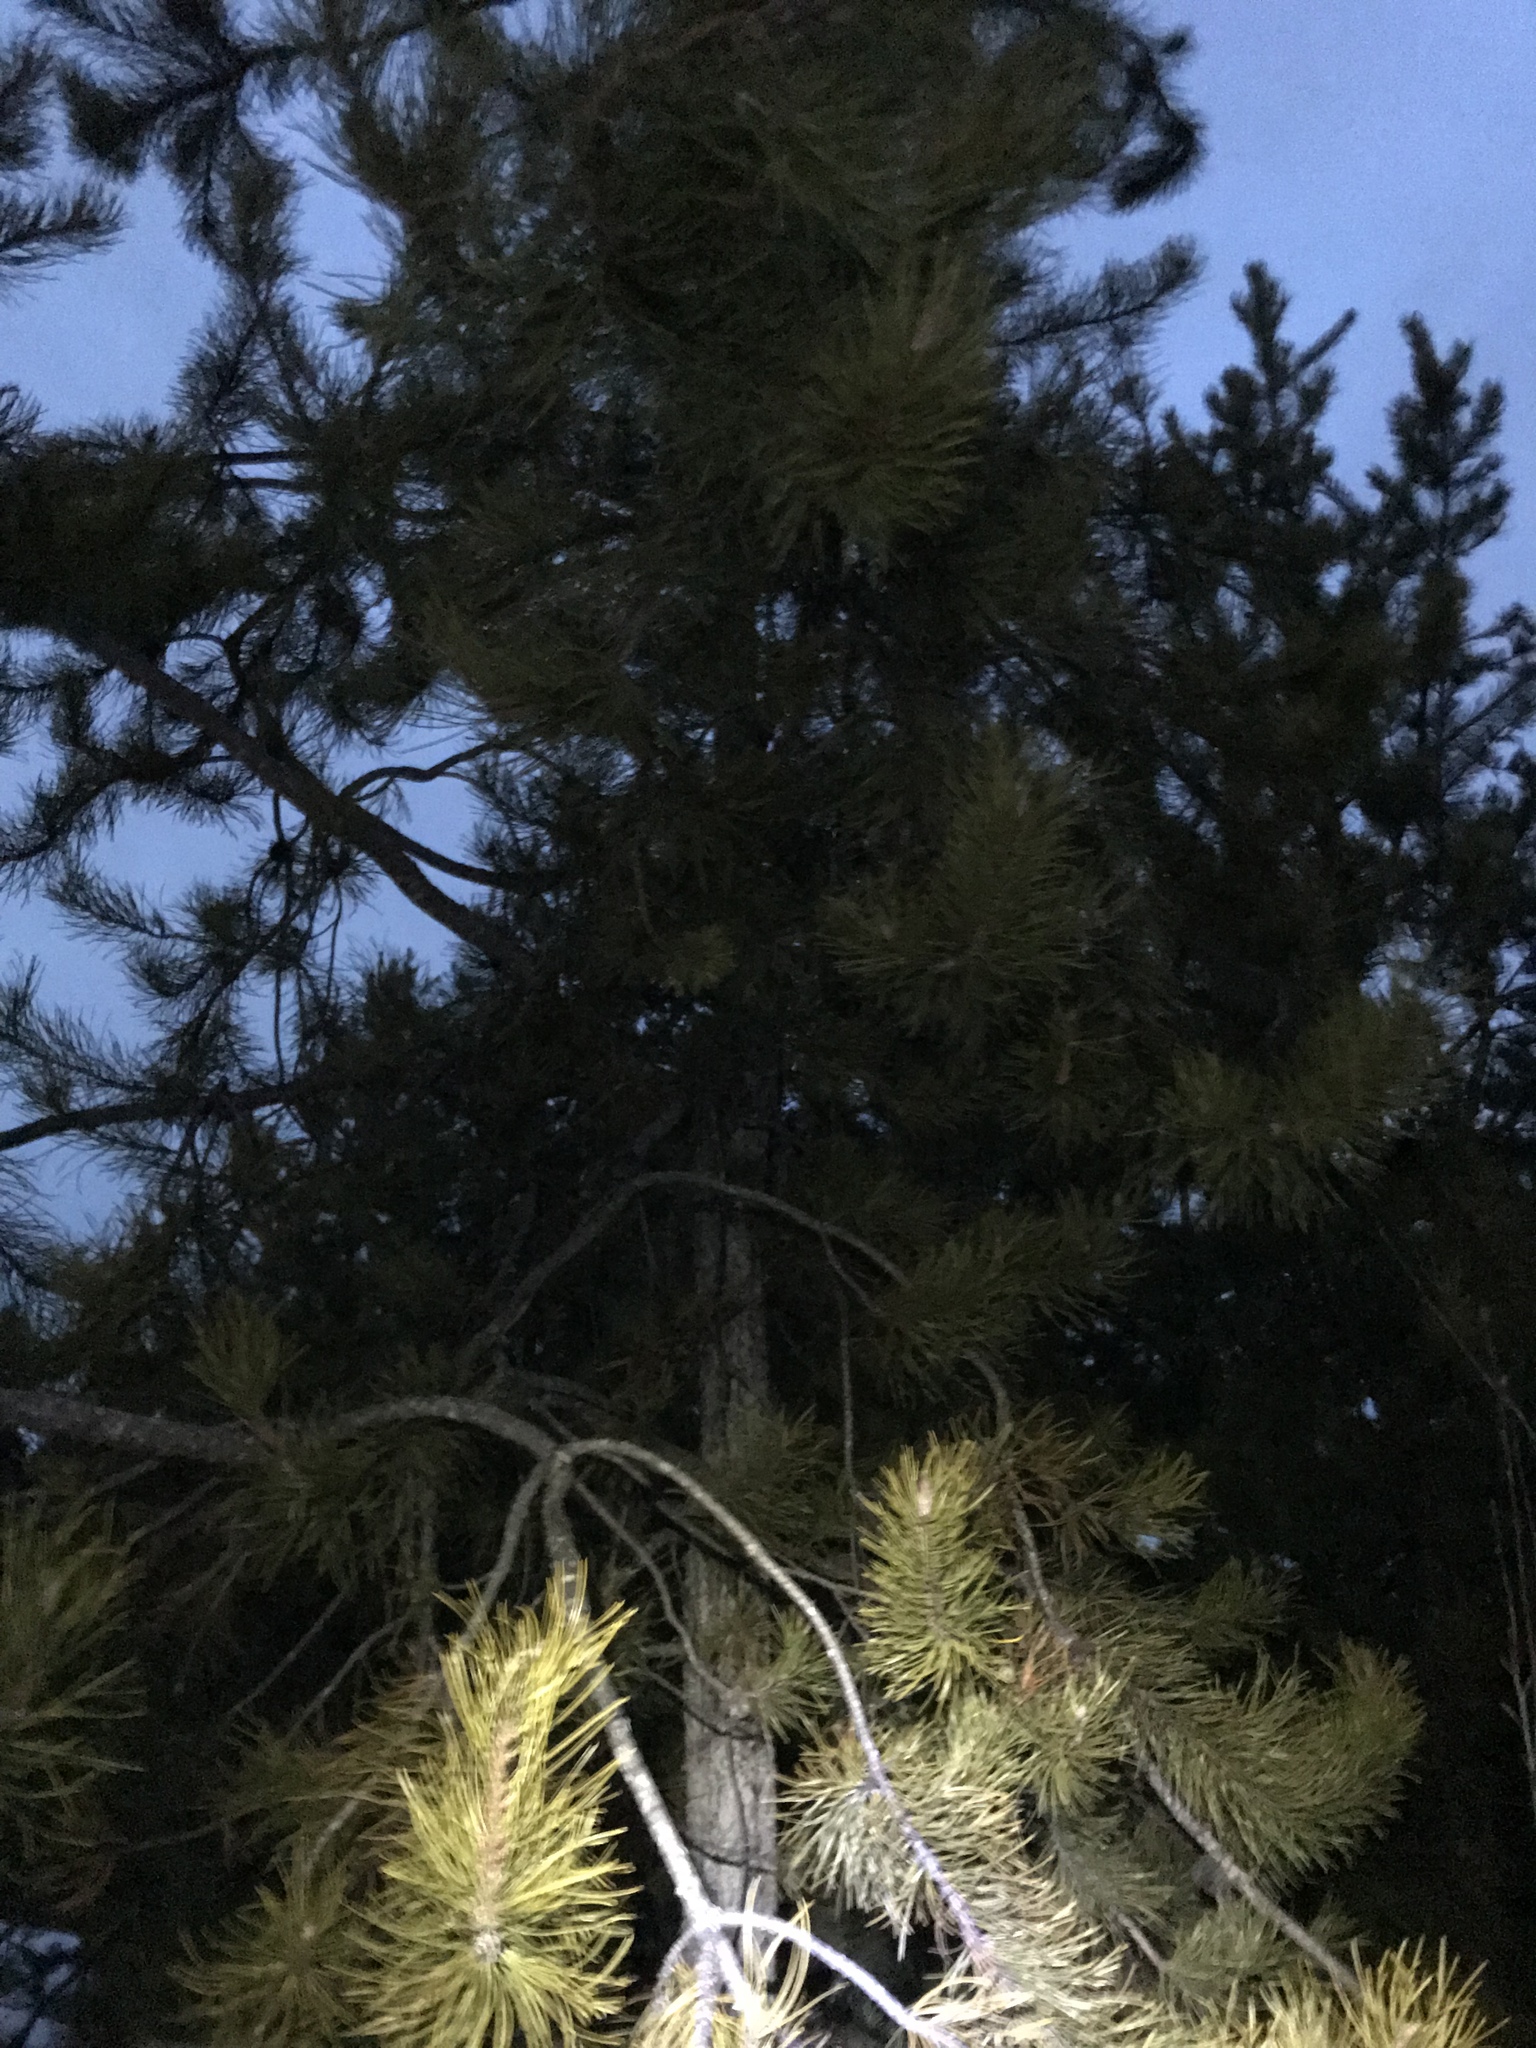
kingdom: Plantae
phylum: Tracheophyta
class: Pinopsida
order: Pinales
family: Pinaceae
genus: Pinus
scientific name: Pinus contorta
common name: Lodgepole pine
